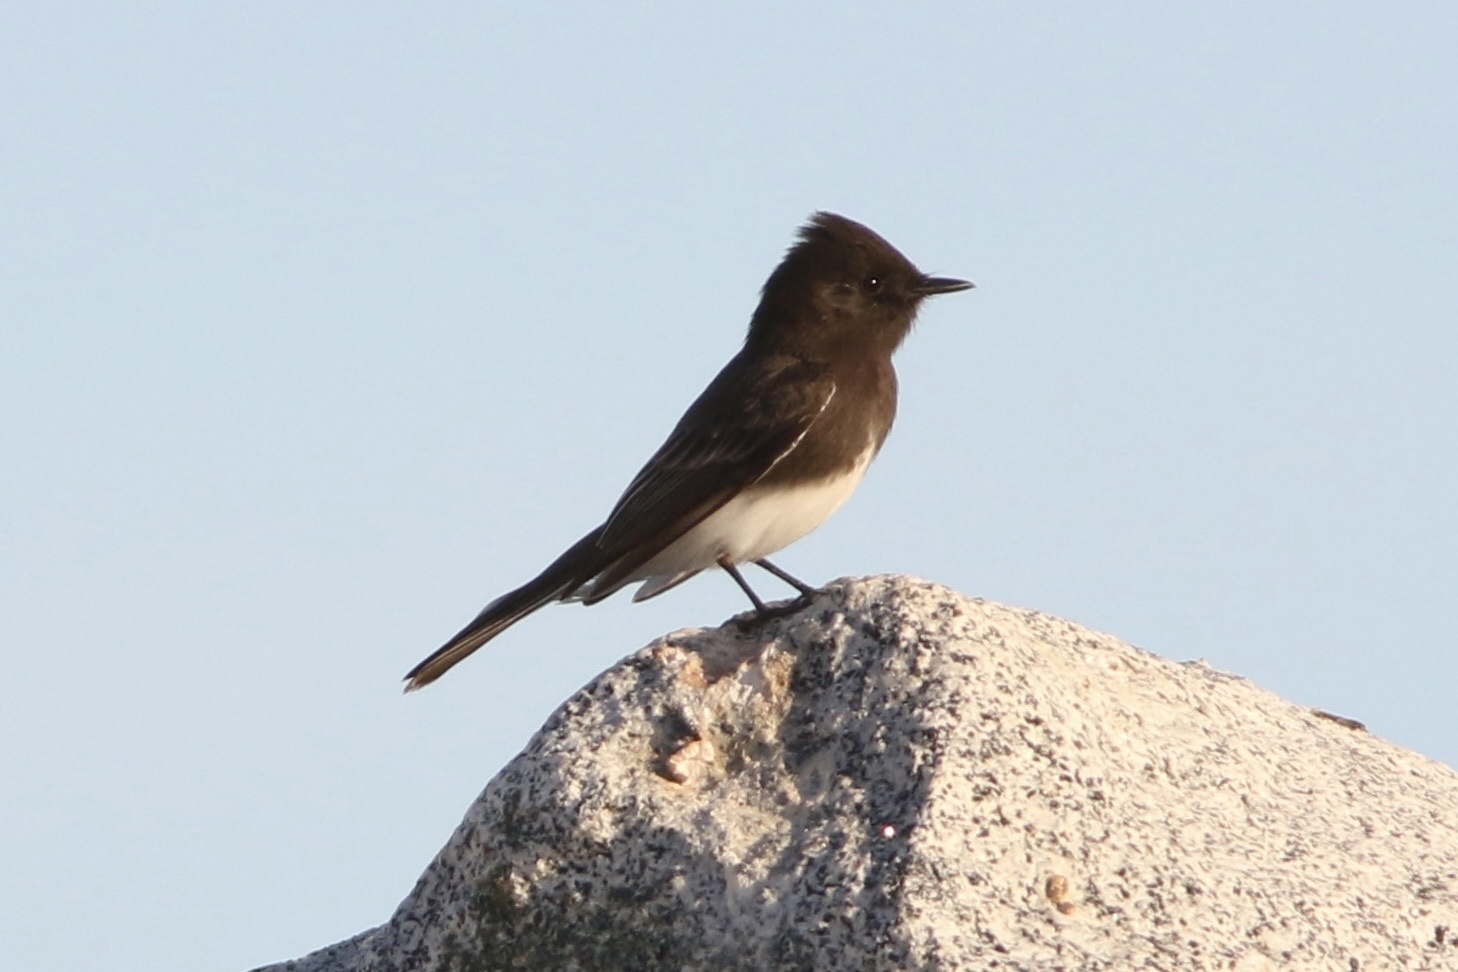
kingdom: Animalia
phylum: Chordata
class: Aves
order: Passeriformes
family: Tyrannidae
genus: Sayornis
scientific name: Sayornis nigricans
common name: Black phoebe
